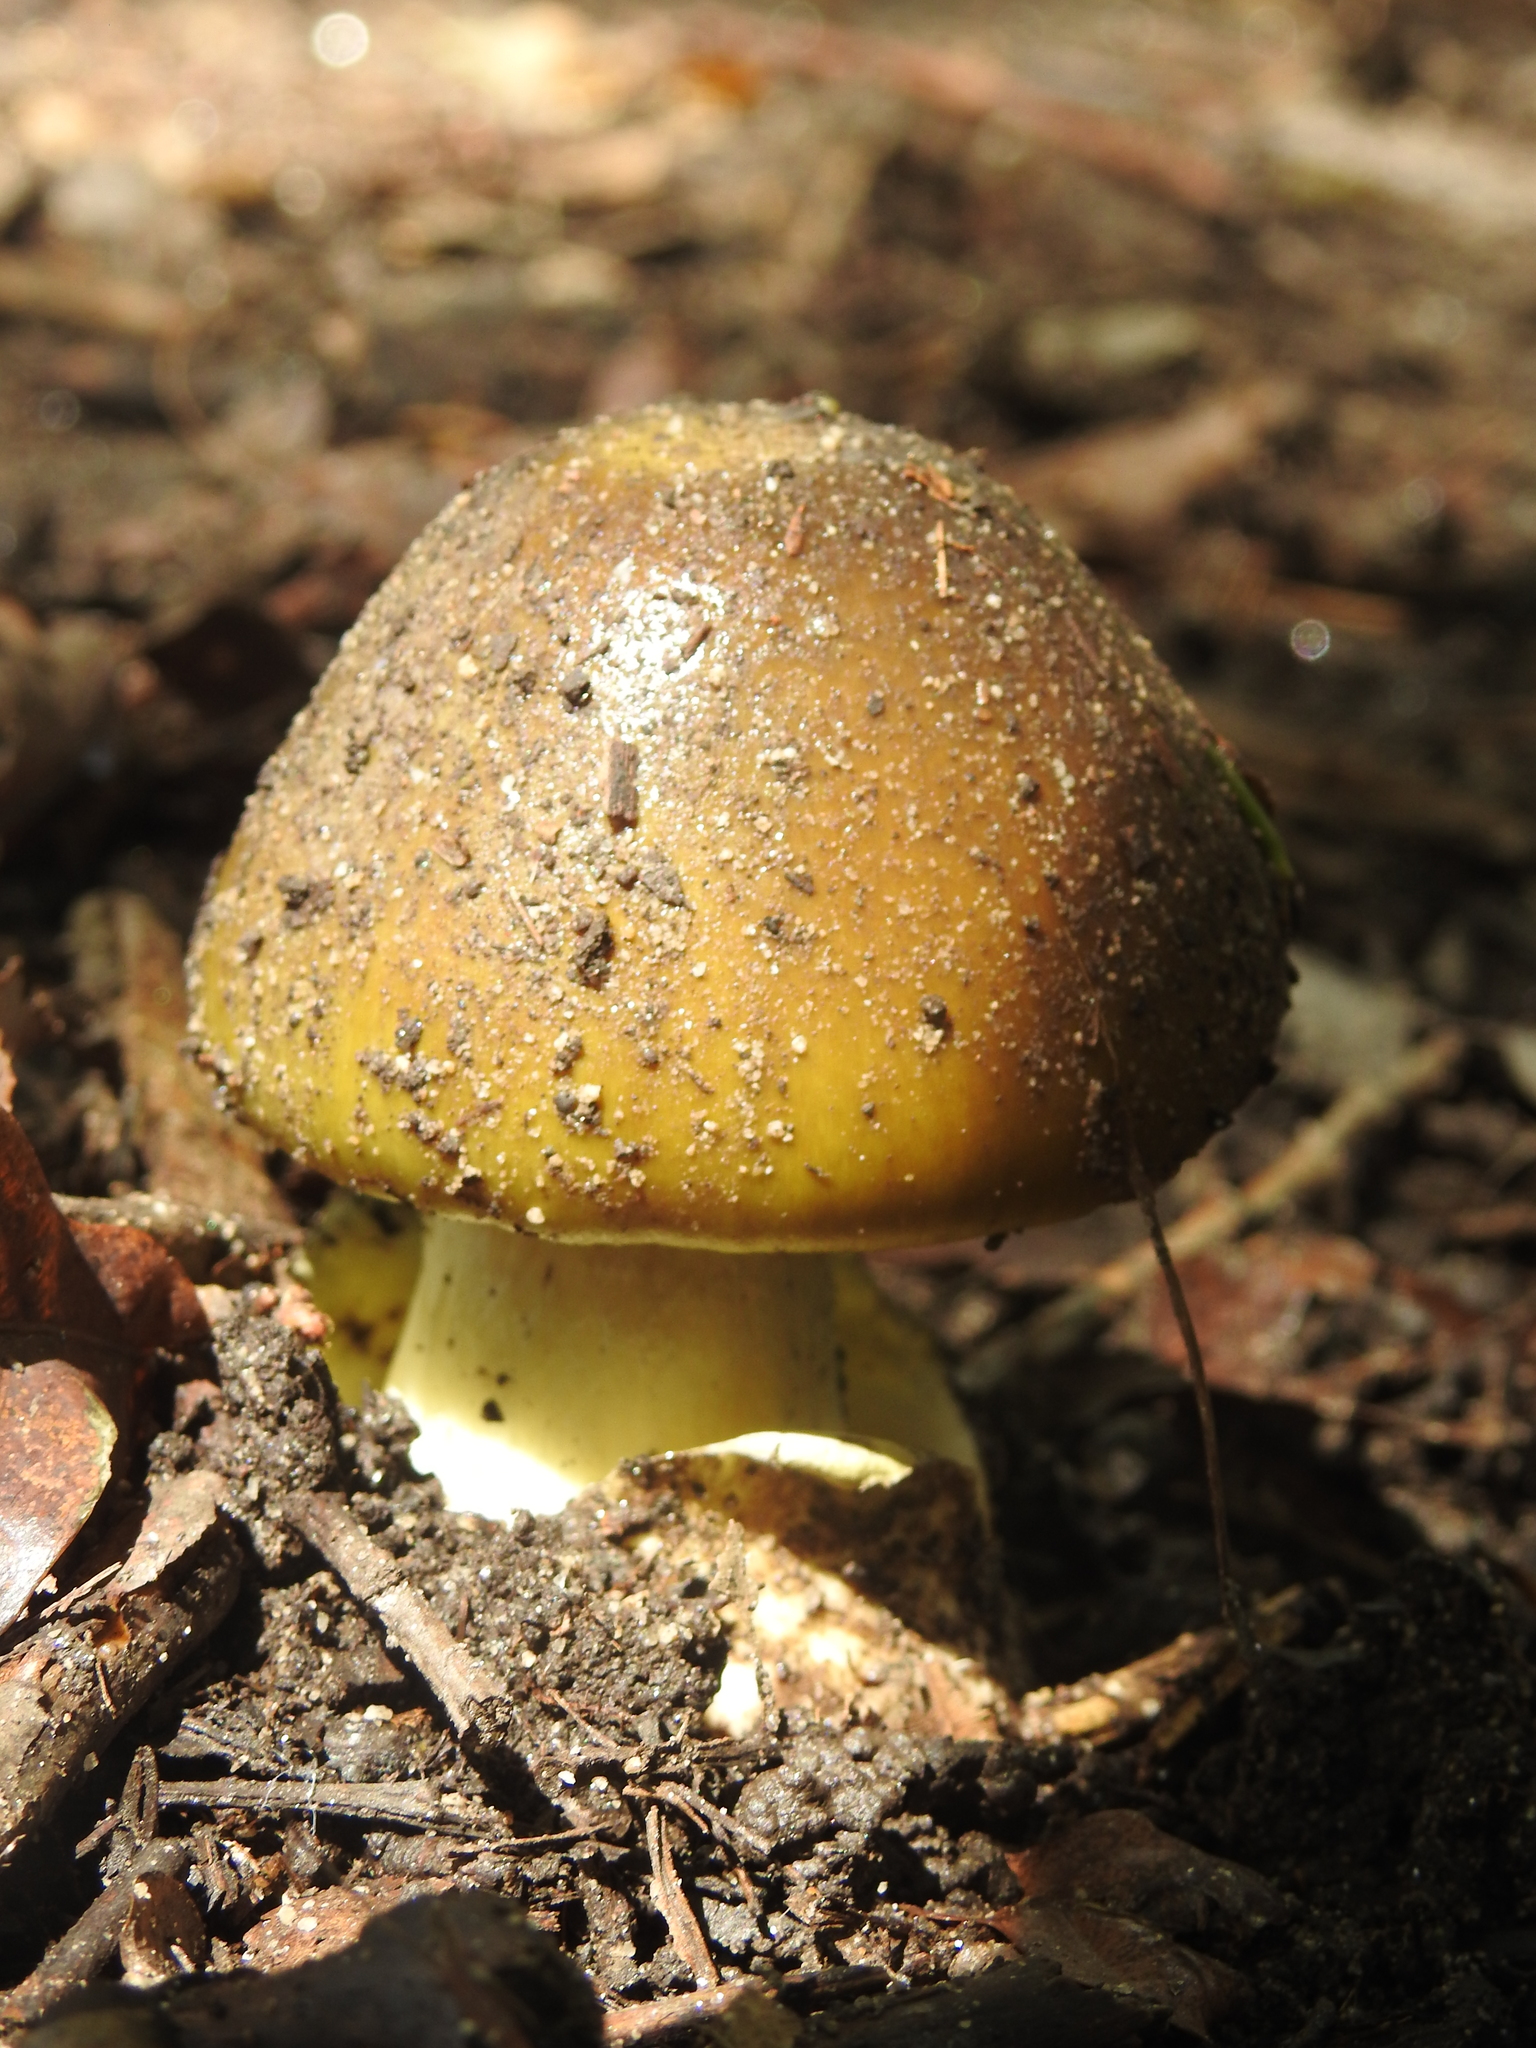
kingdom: Fungi
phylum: Basidiomycota
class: Agaricomycetes
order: Agaricales
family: Amanitaceae
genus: Amanita
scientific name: Amanita phalloides
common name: Death cap
